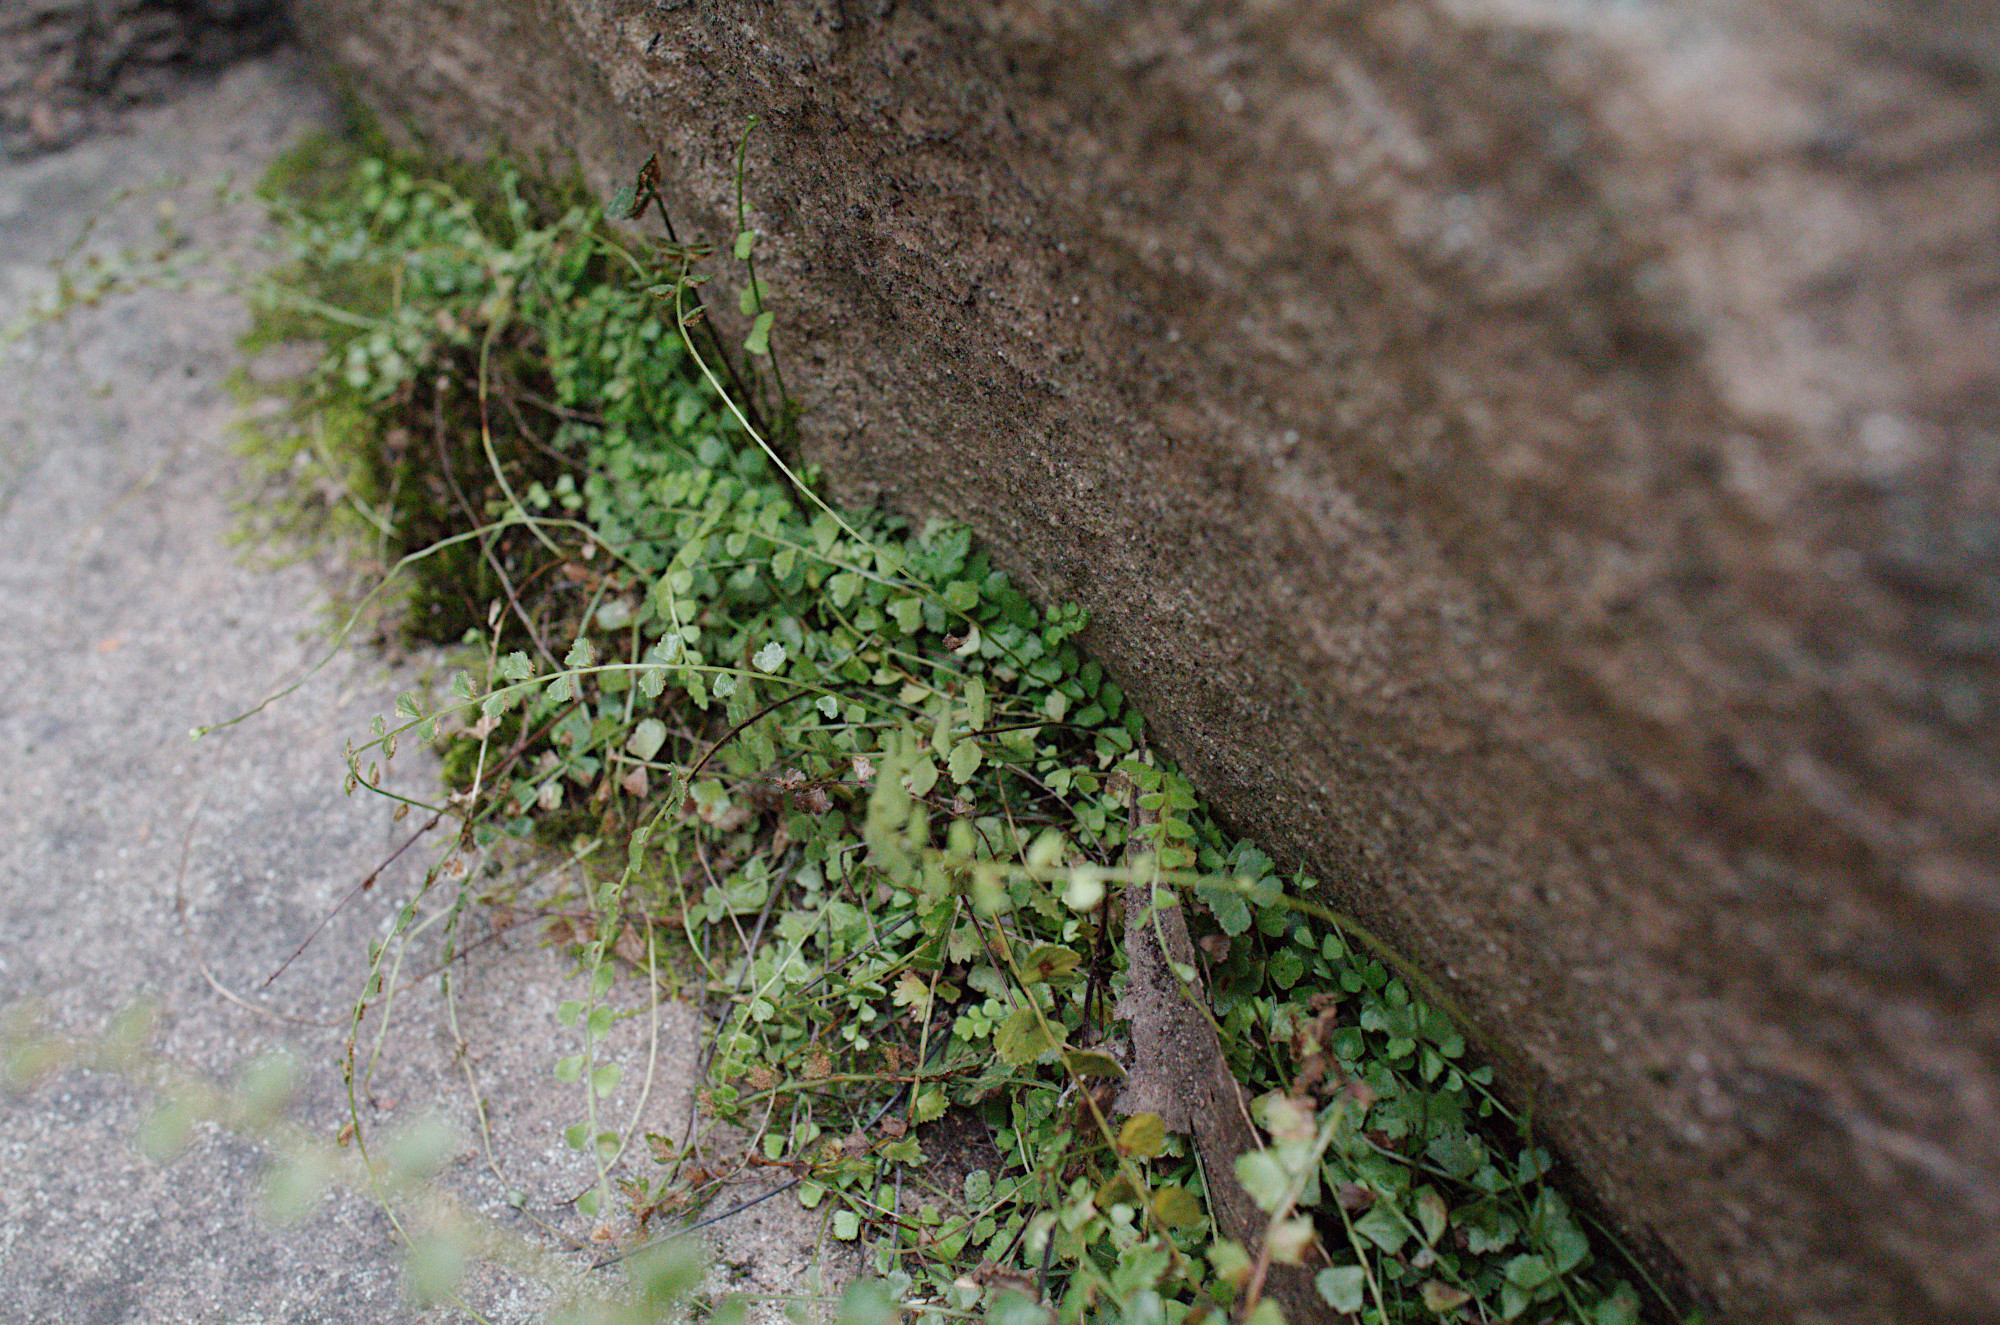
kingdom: Plantae
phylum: Tracheophyta
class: Polypodiopsida
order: Polypodiales
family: Aspleniaceae
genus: Asplenium
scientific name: Asplenium flabellifolium
